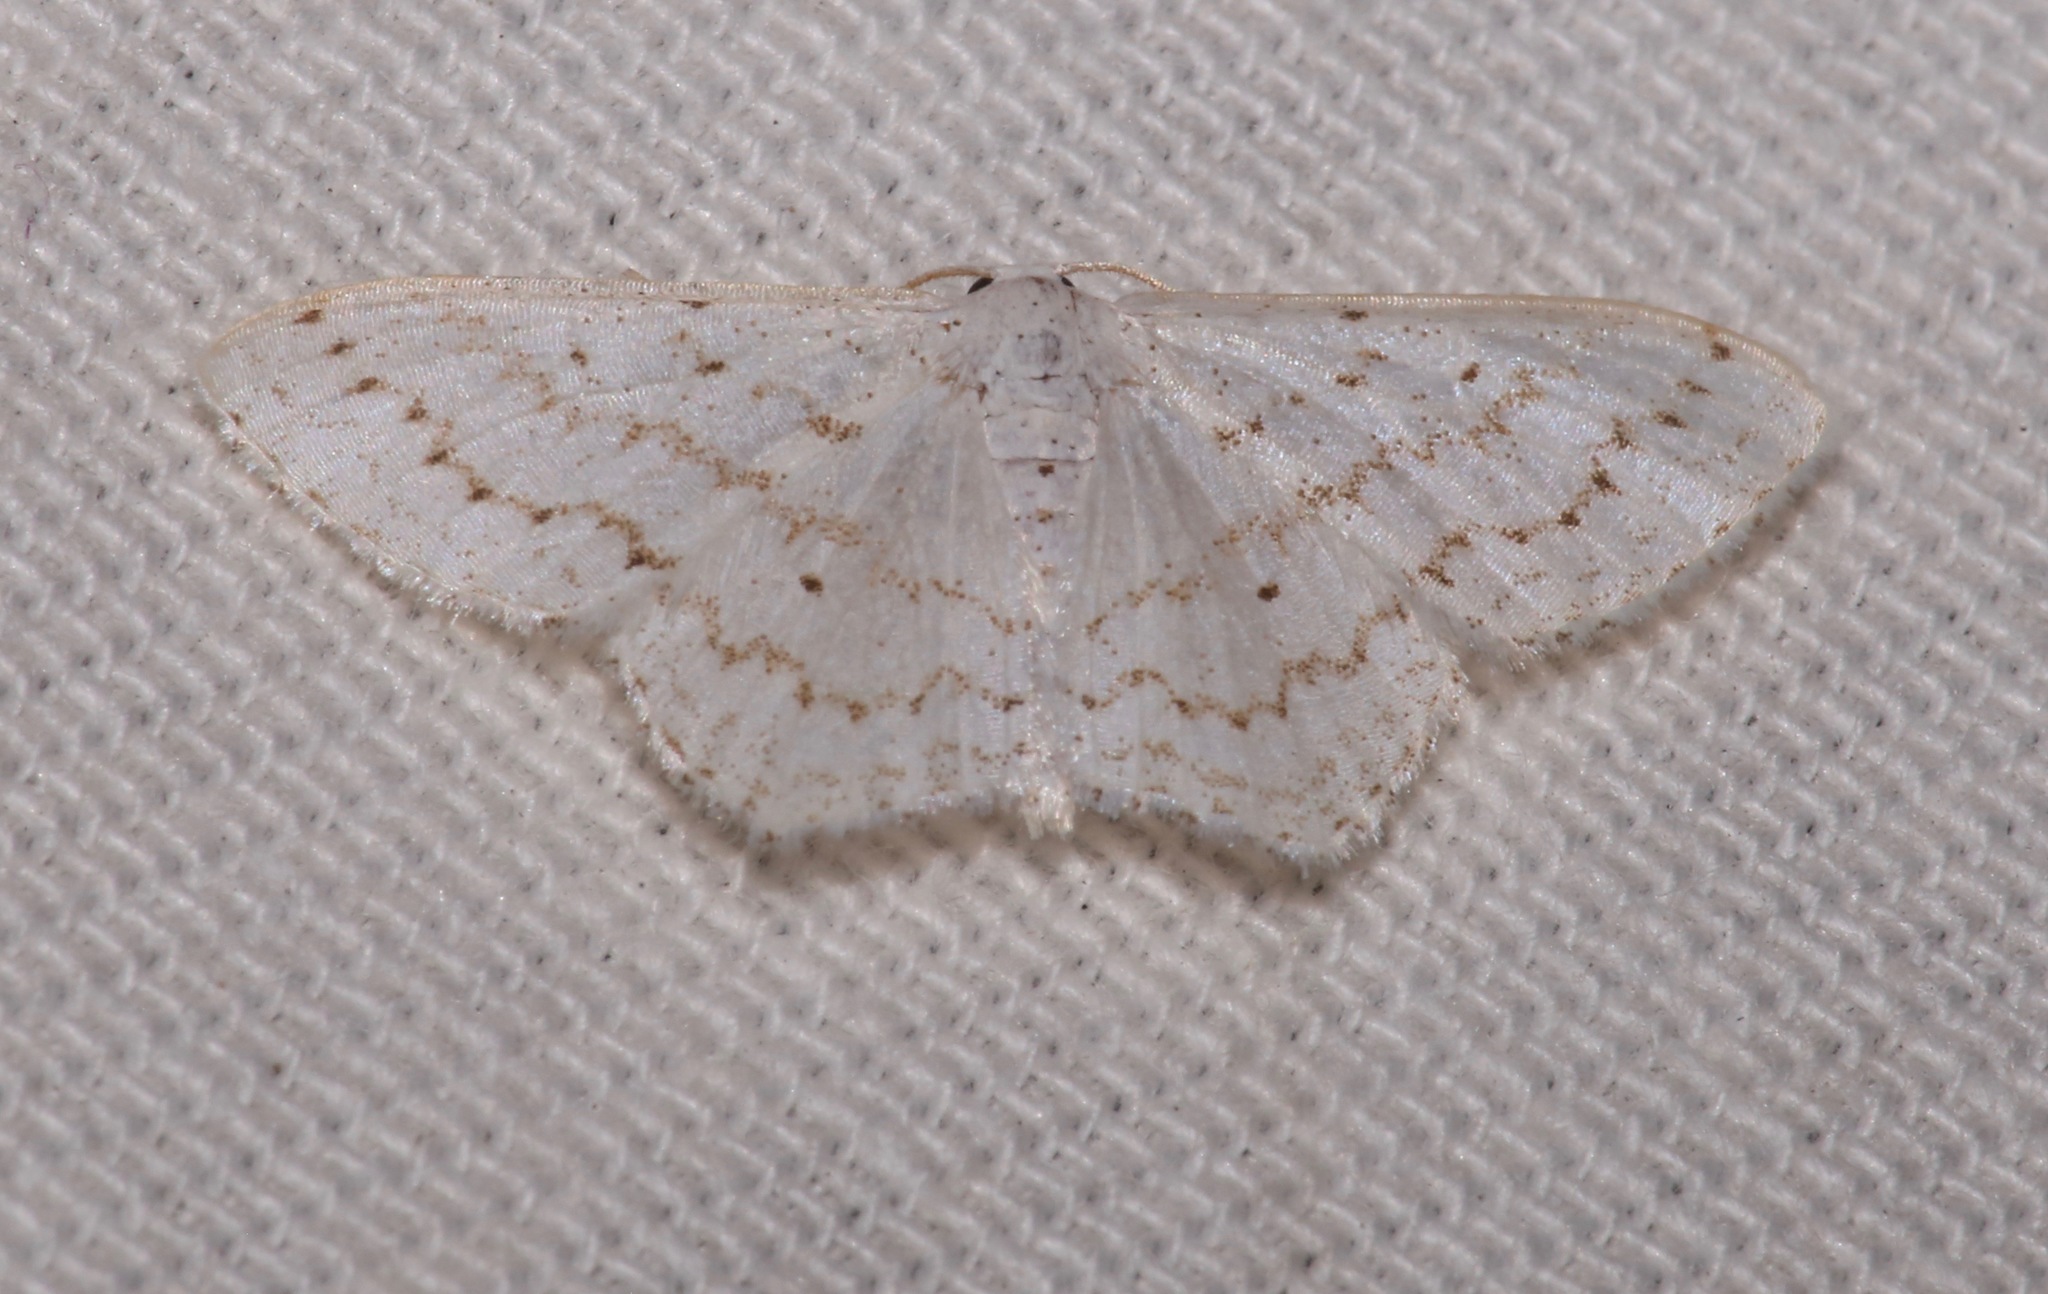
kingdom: Animalia
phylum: Arthropoda
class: Insecta
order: Lepidoptera
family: Geometridae
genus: Idaea
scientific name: Idaea tacturata
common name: Dot-lined wave
